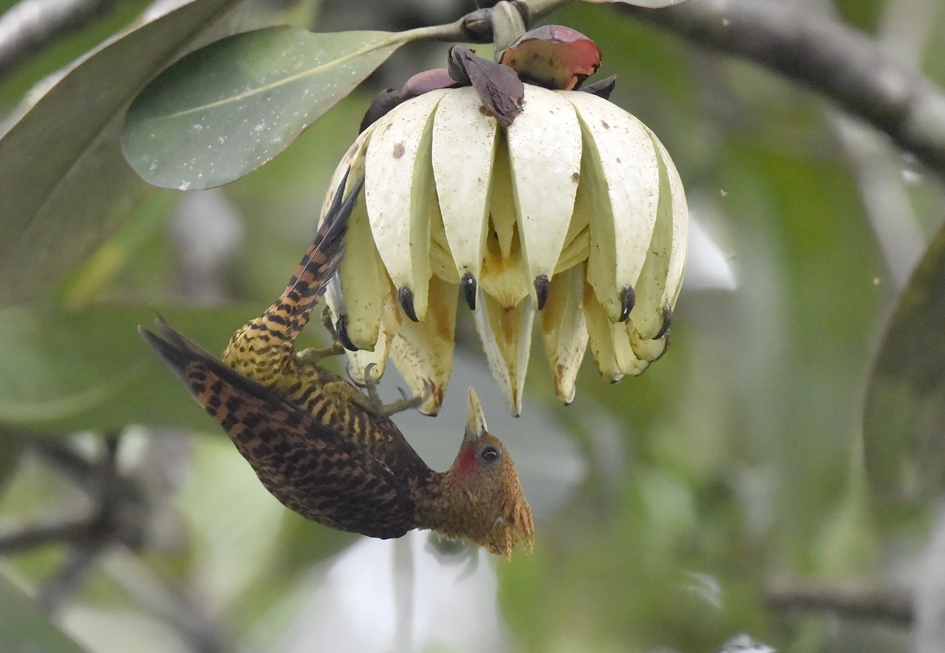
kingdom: Animalia
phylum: Chordata
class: Aves
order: Piciformes
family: Picidae
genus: Celeus
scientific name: Celeus undatus
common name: Waved woodpecker
